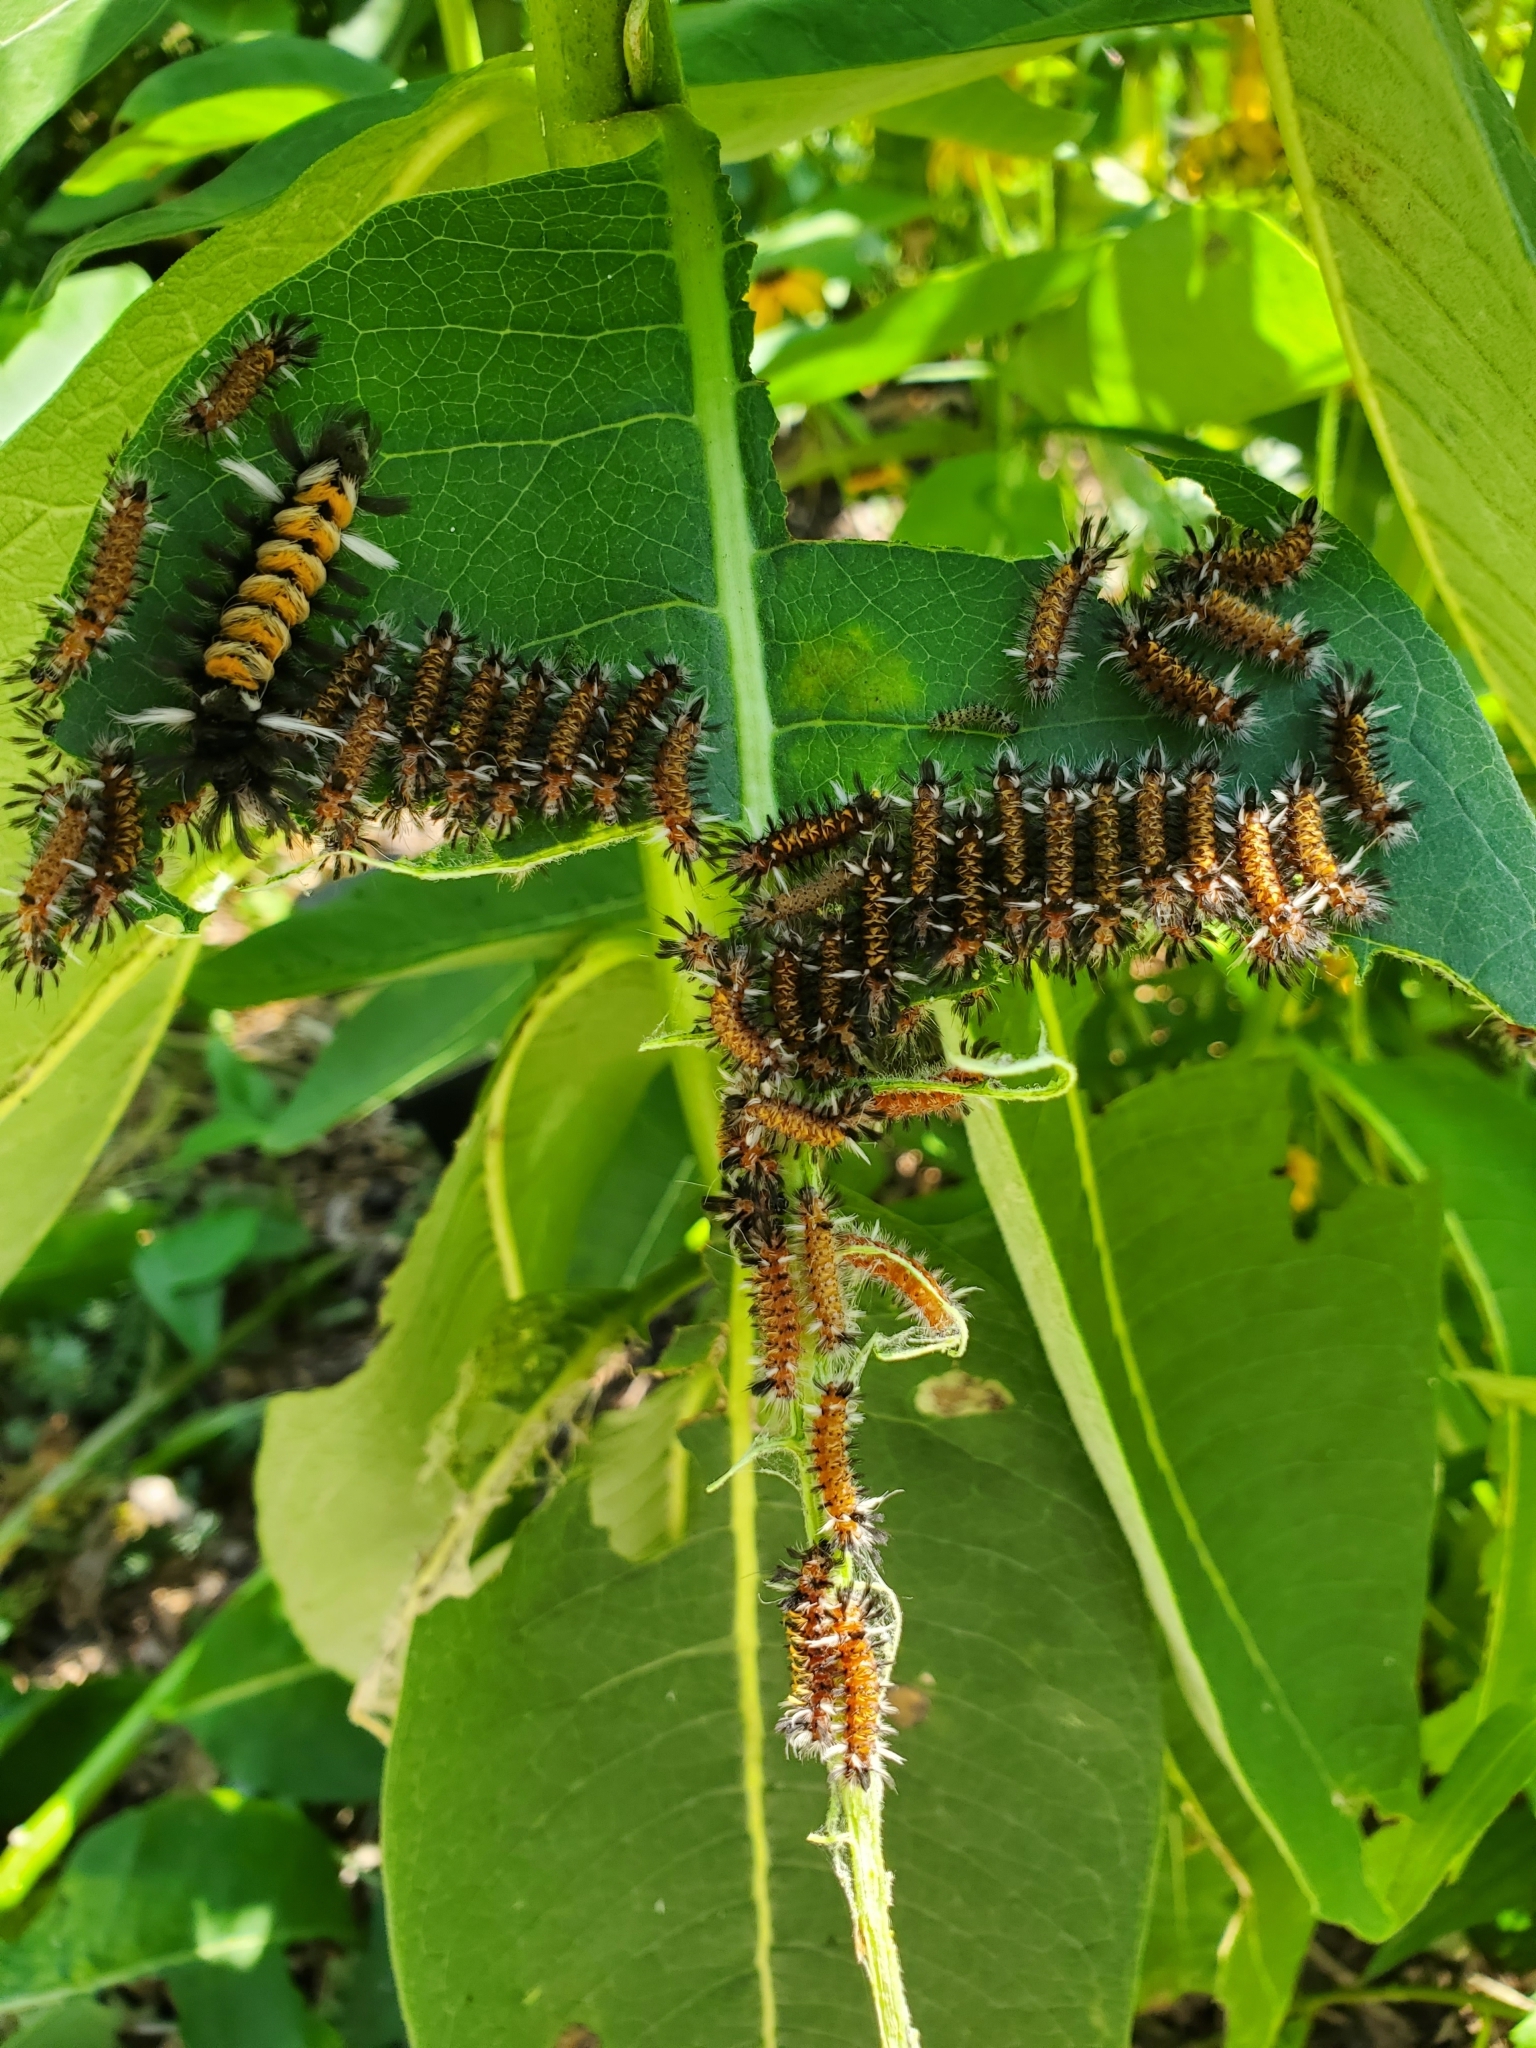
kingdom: Animalia
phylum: Arthropoda
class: Insecta
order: Lepidoptera
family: Erebidae
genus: Euchaetes
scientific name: Euchaetes egle
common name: Milkweed tussock moth
